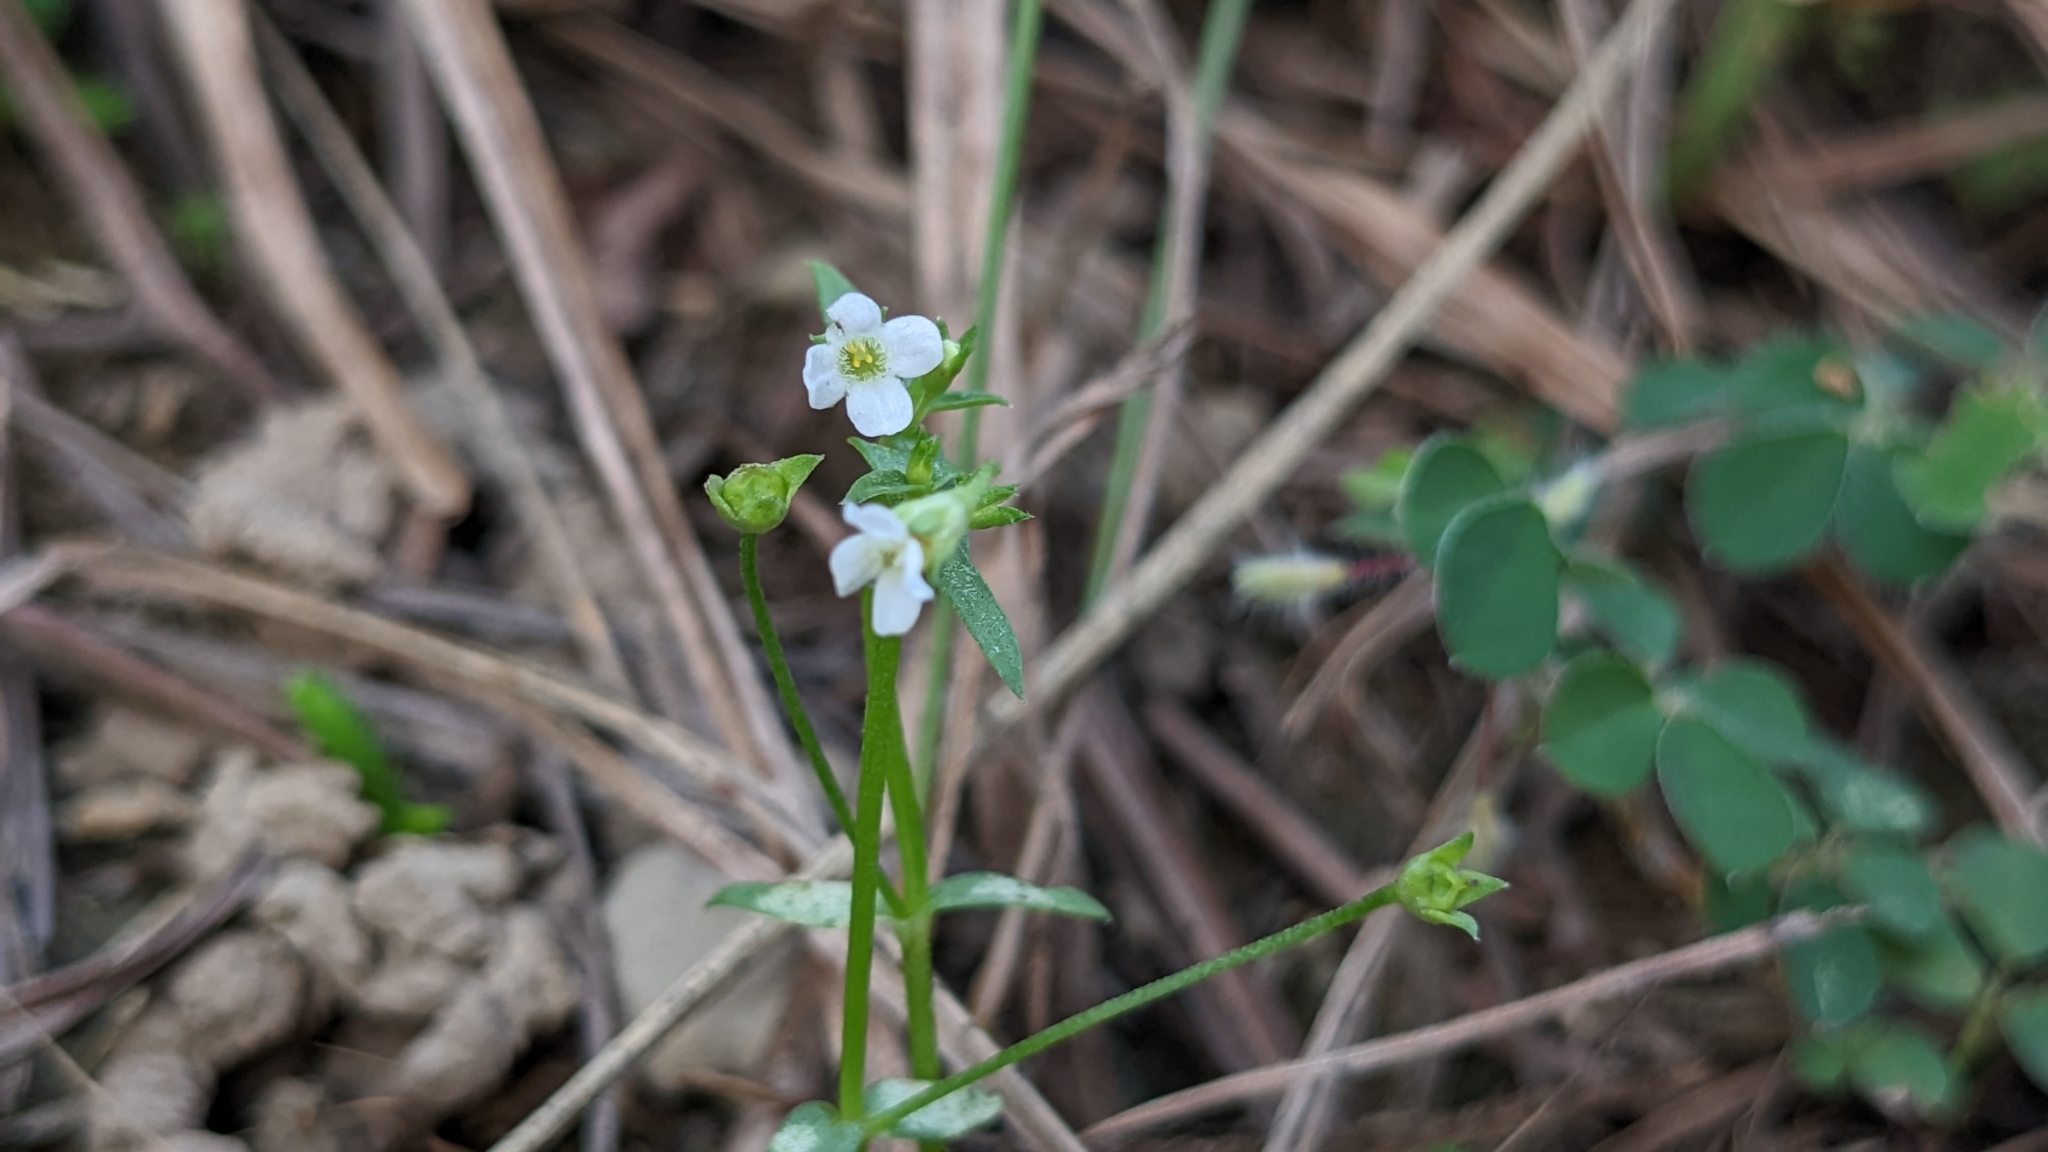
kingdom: Plantae
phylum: Tracheophyta
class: Magnoliopsida
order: Gentianales
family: Loganiaceae
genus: Mitrasacme
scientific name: Mitrasacme prolifera
